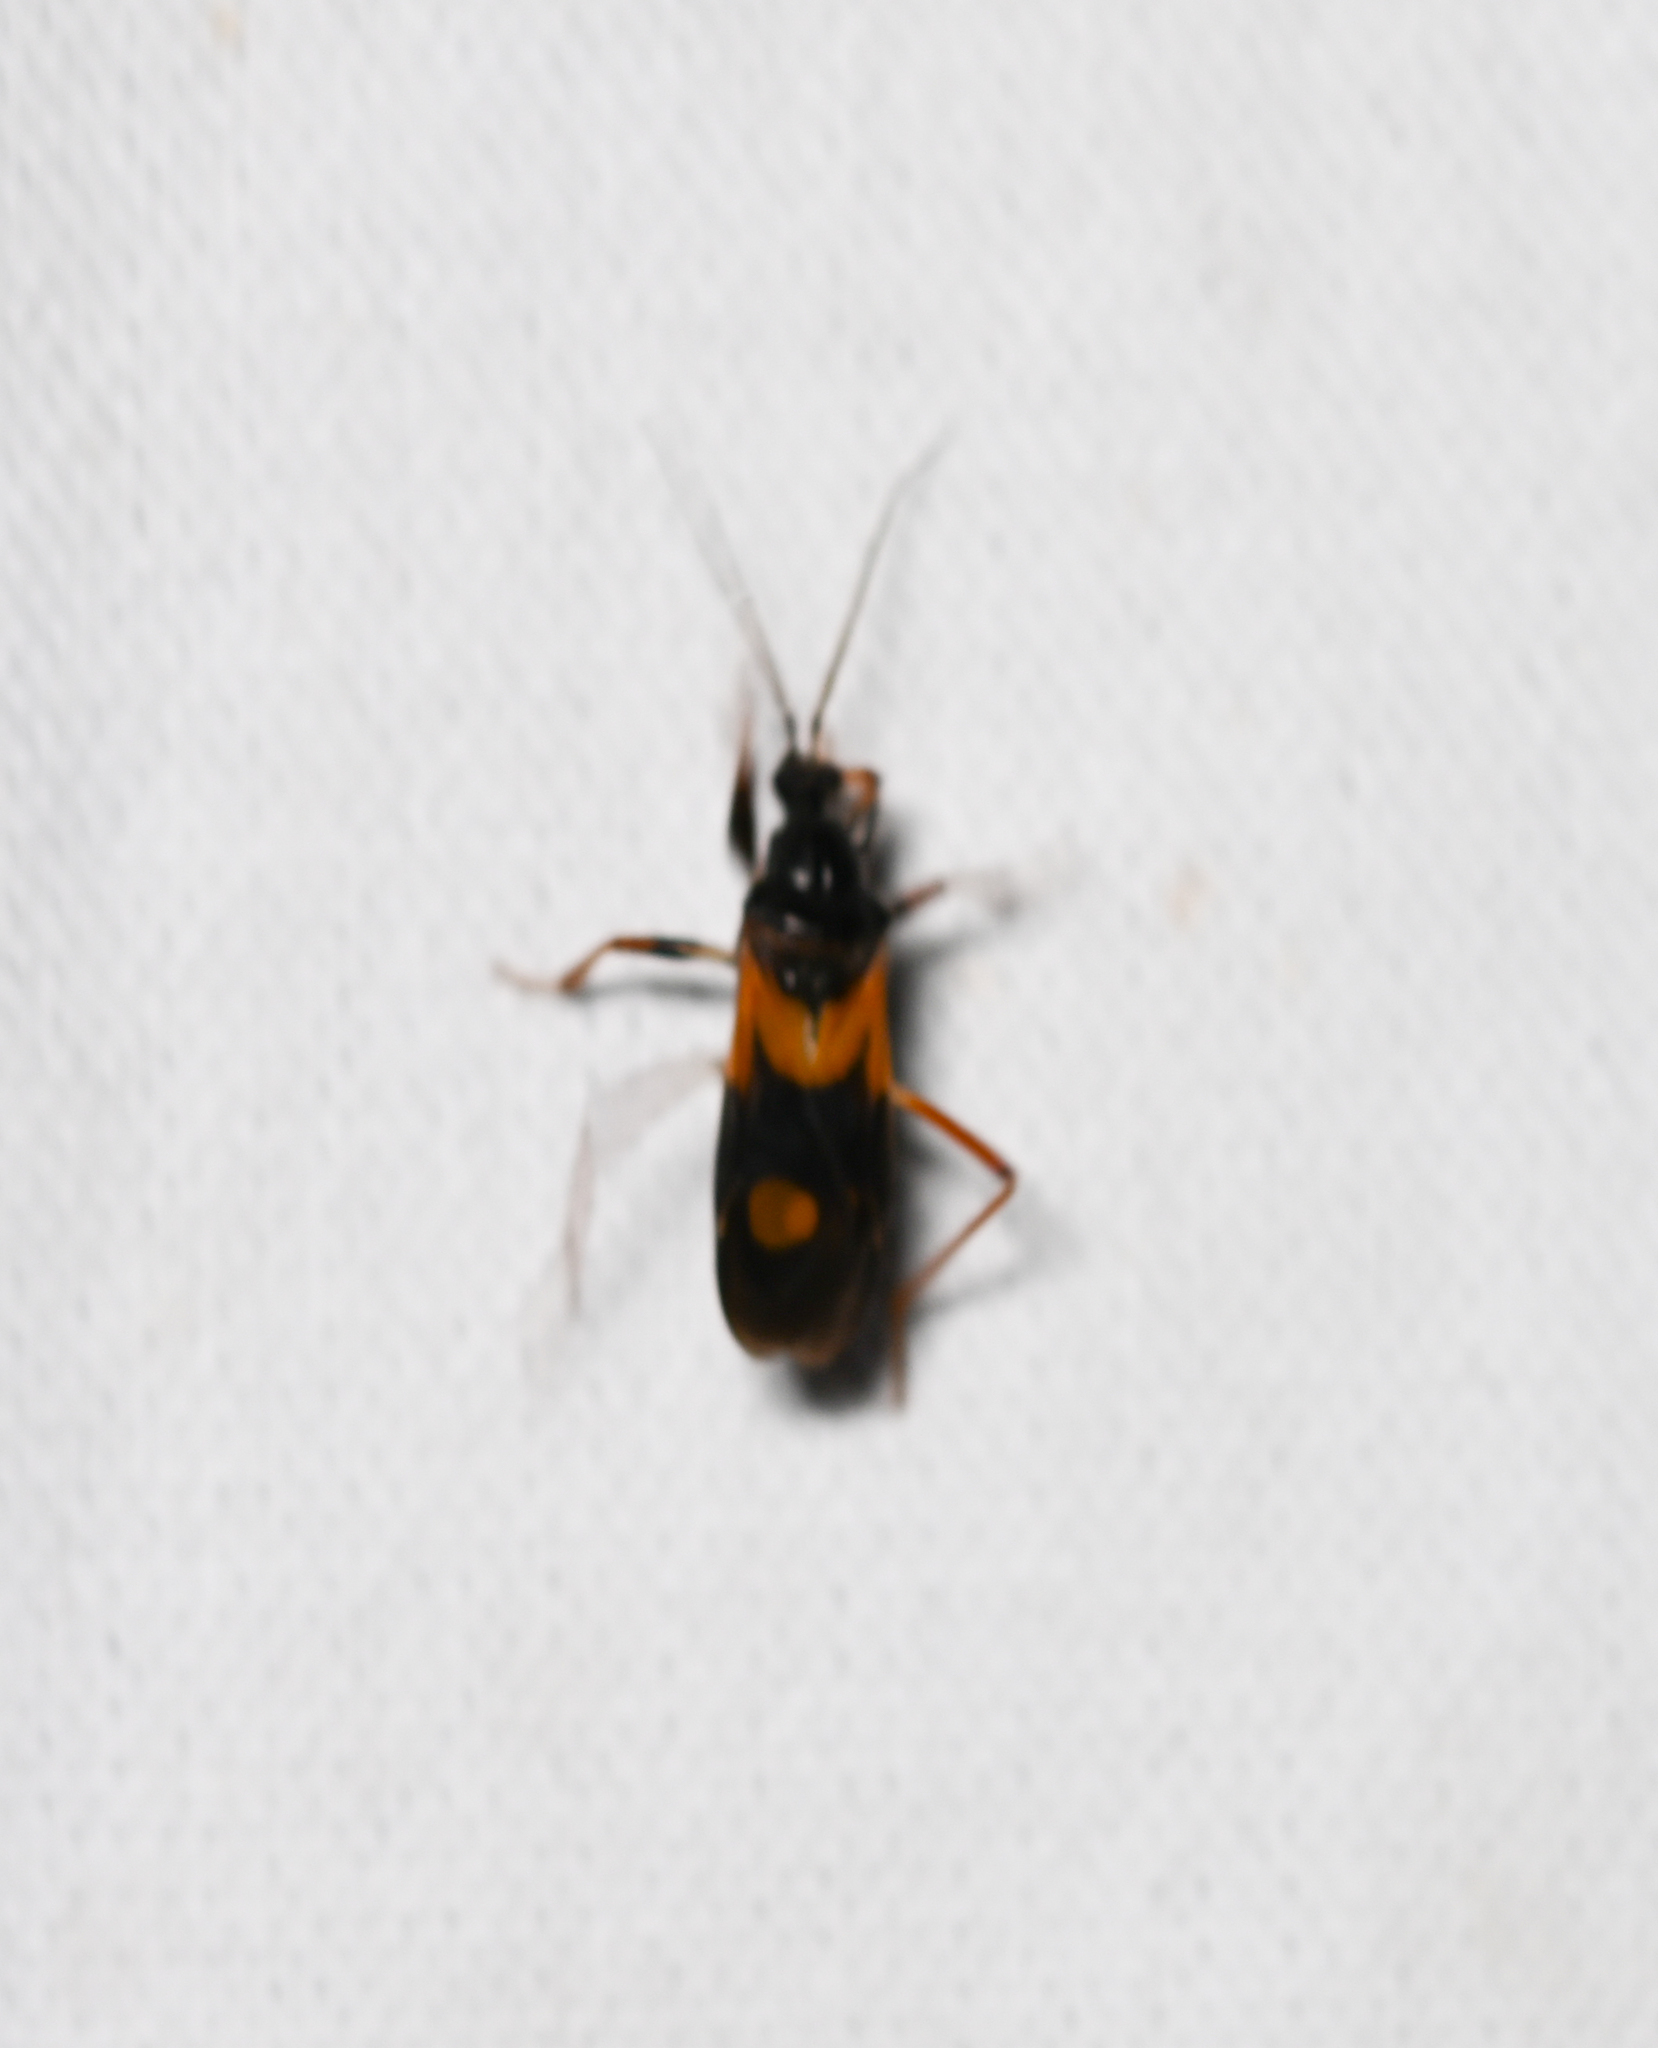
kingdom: Animalia
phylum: Arthropoda
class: Insecta
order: Hemiptera
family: Reduviidae
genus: Rasahus
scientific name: Rasahus biguttatus
